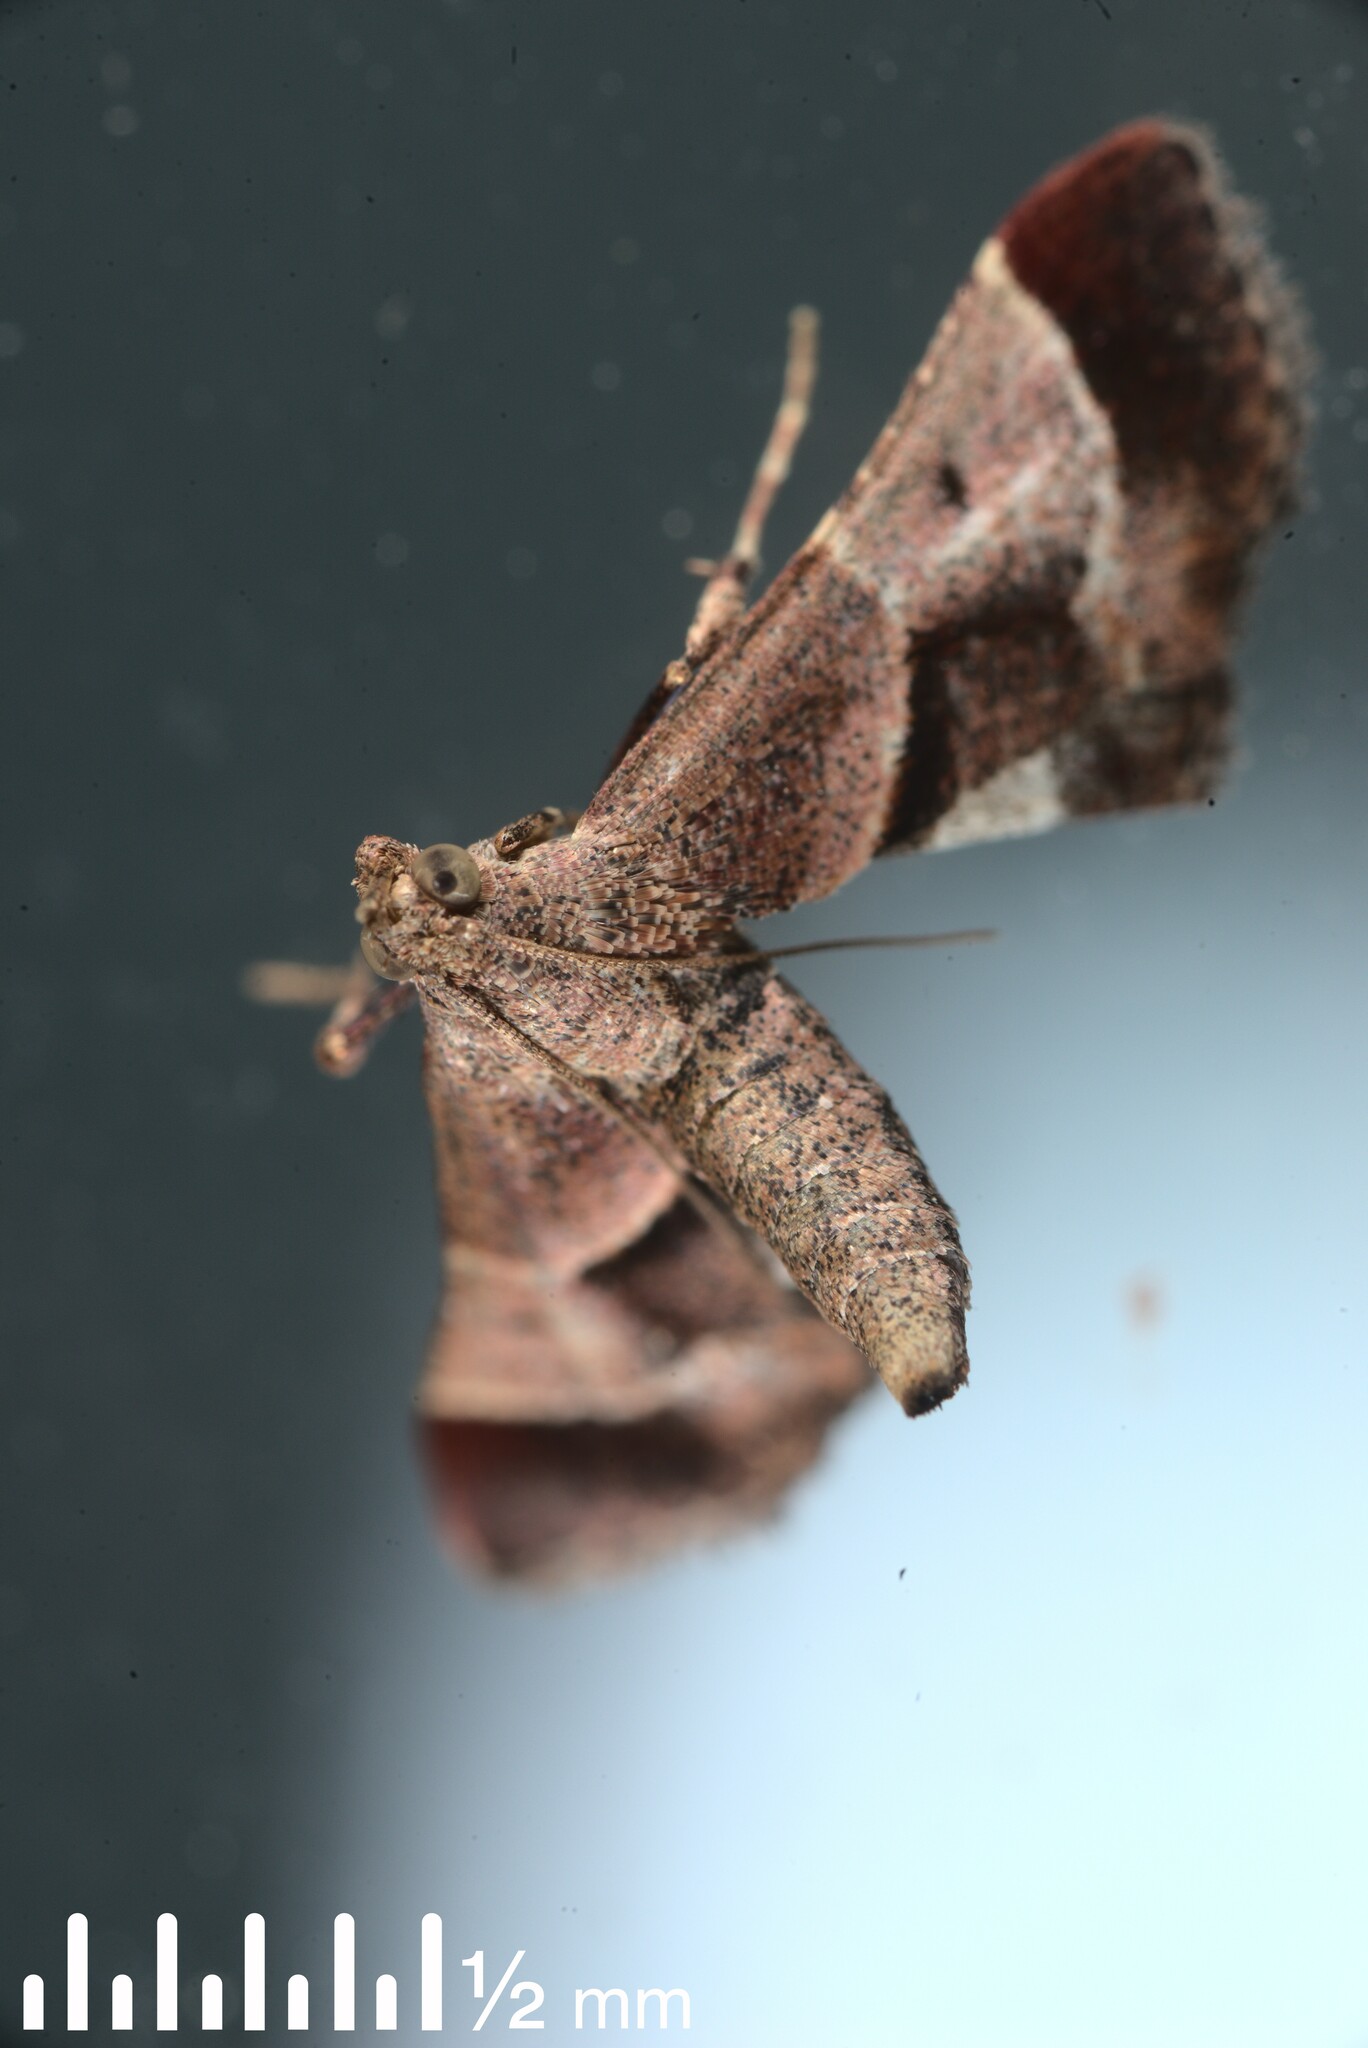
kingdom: Animalia
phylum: Arthropoda
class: Insecta
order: Lepidoptera
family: Pyralidae
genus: Gauna
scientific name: Gauna aegusalis
